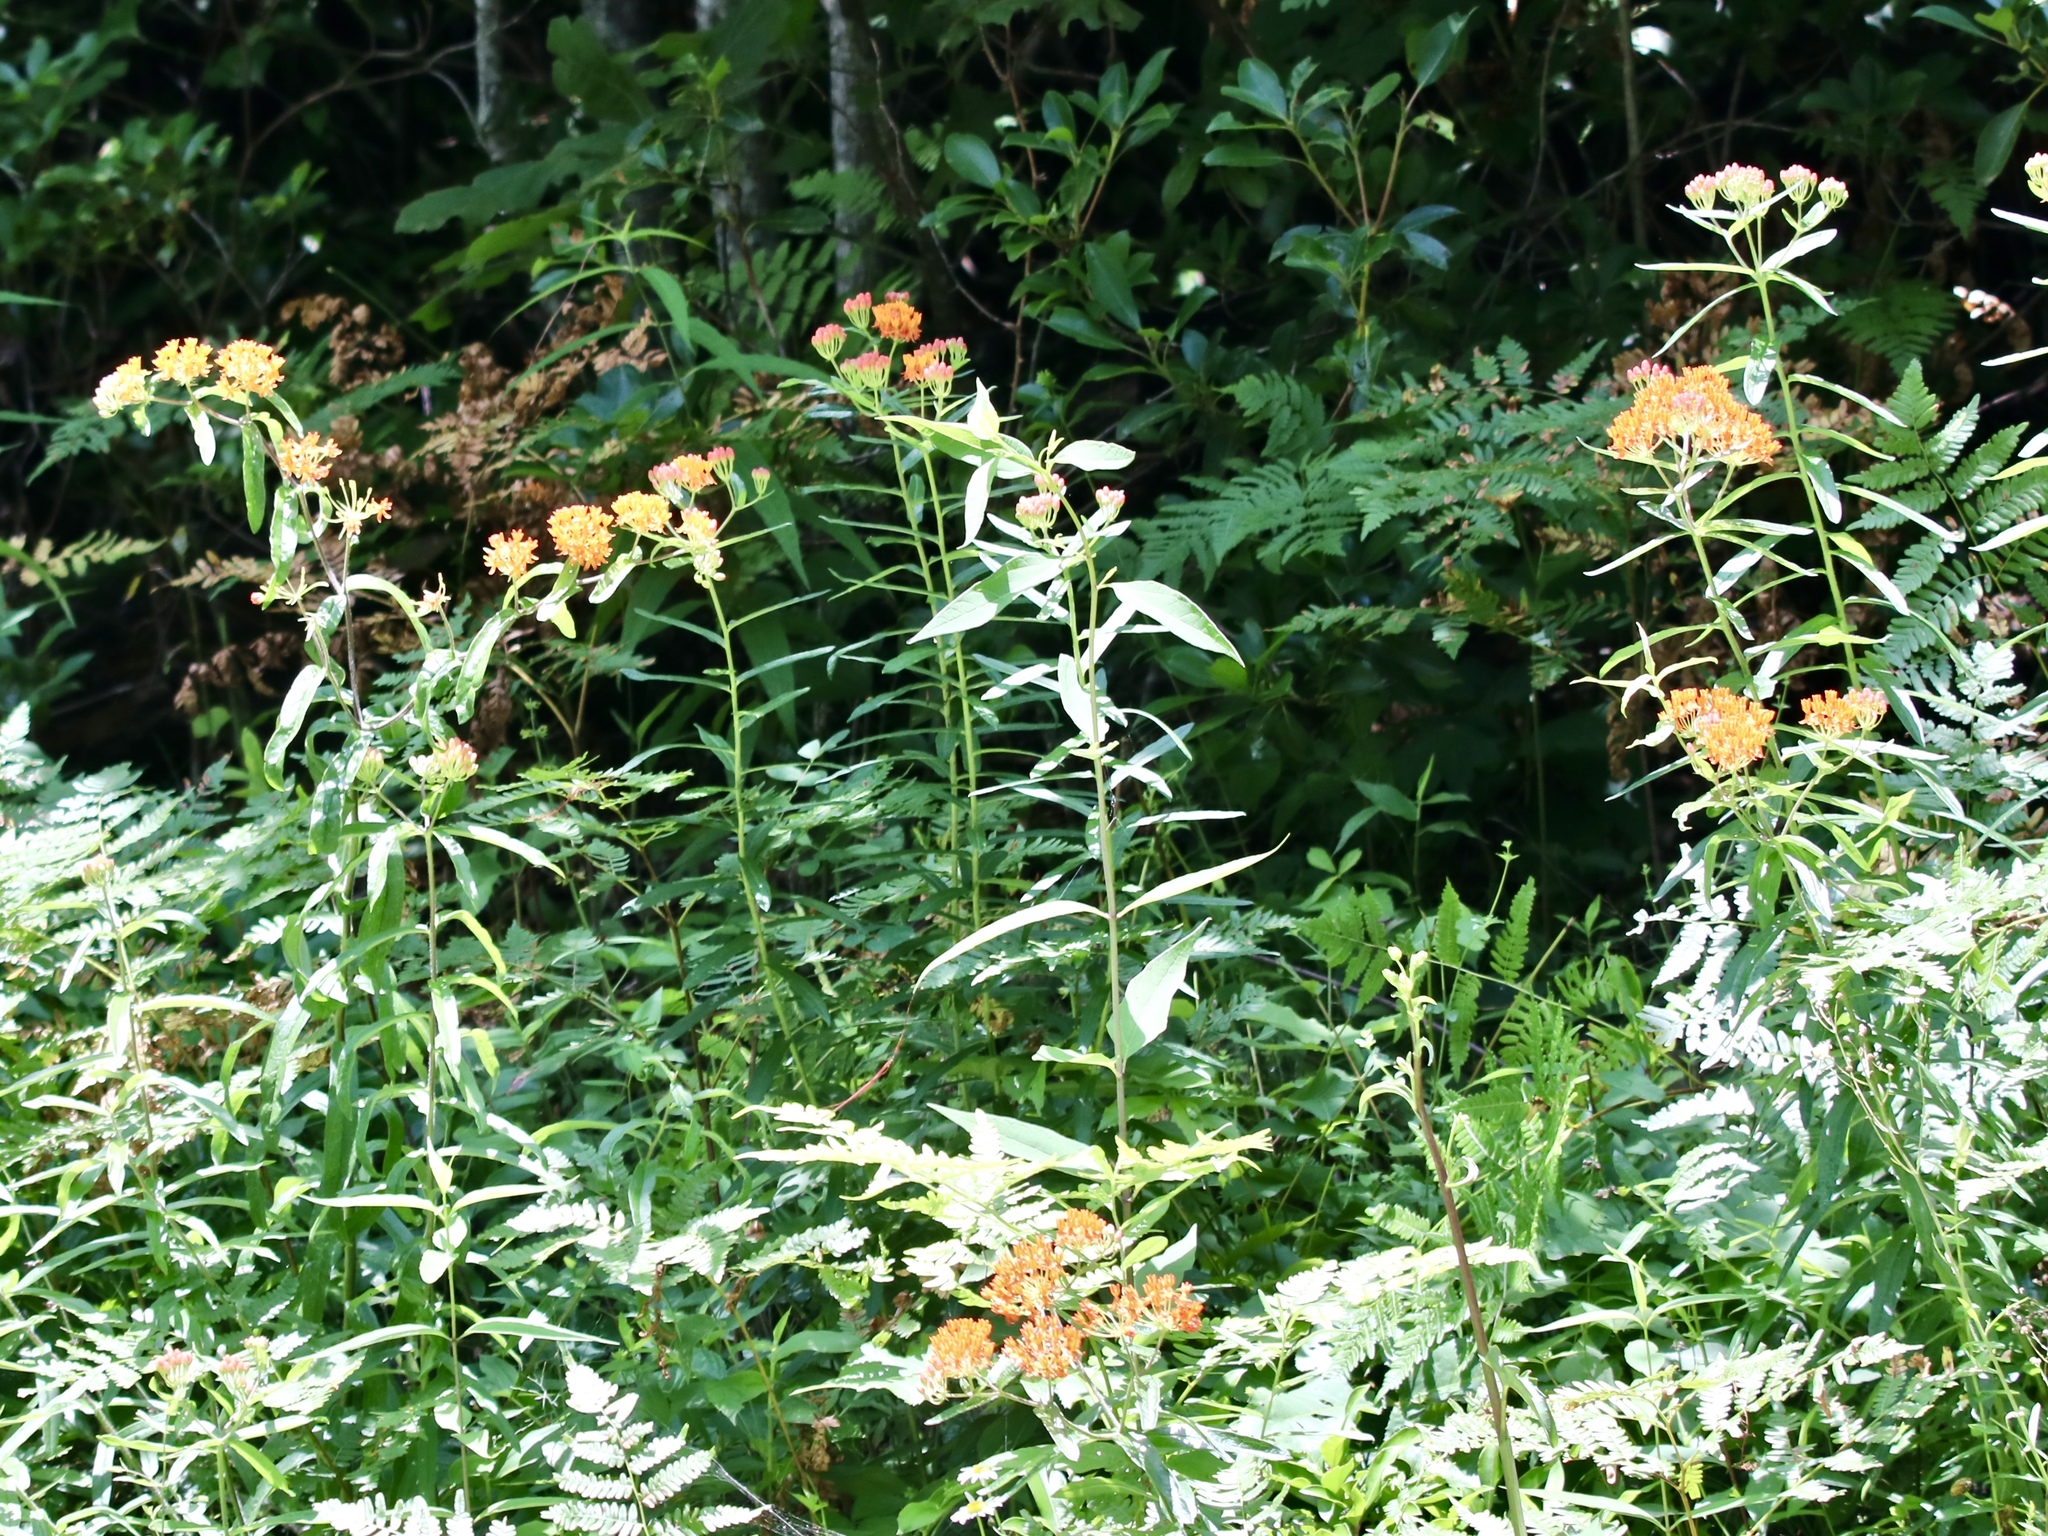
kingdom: Plantae
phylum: Tracheophyta
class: Magnoliopsida
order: Gentianales
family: Apocynaceae
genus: Asclepias
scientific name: Asclepias tuberosa
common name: Butterfly milkweed
